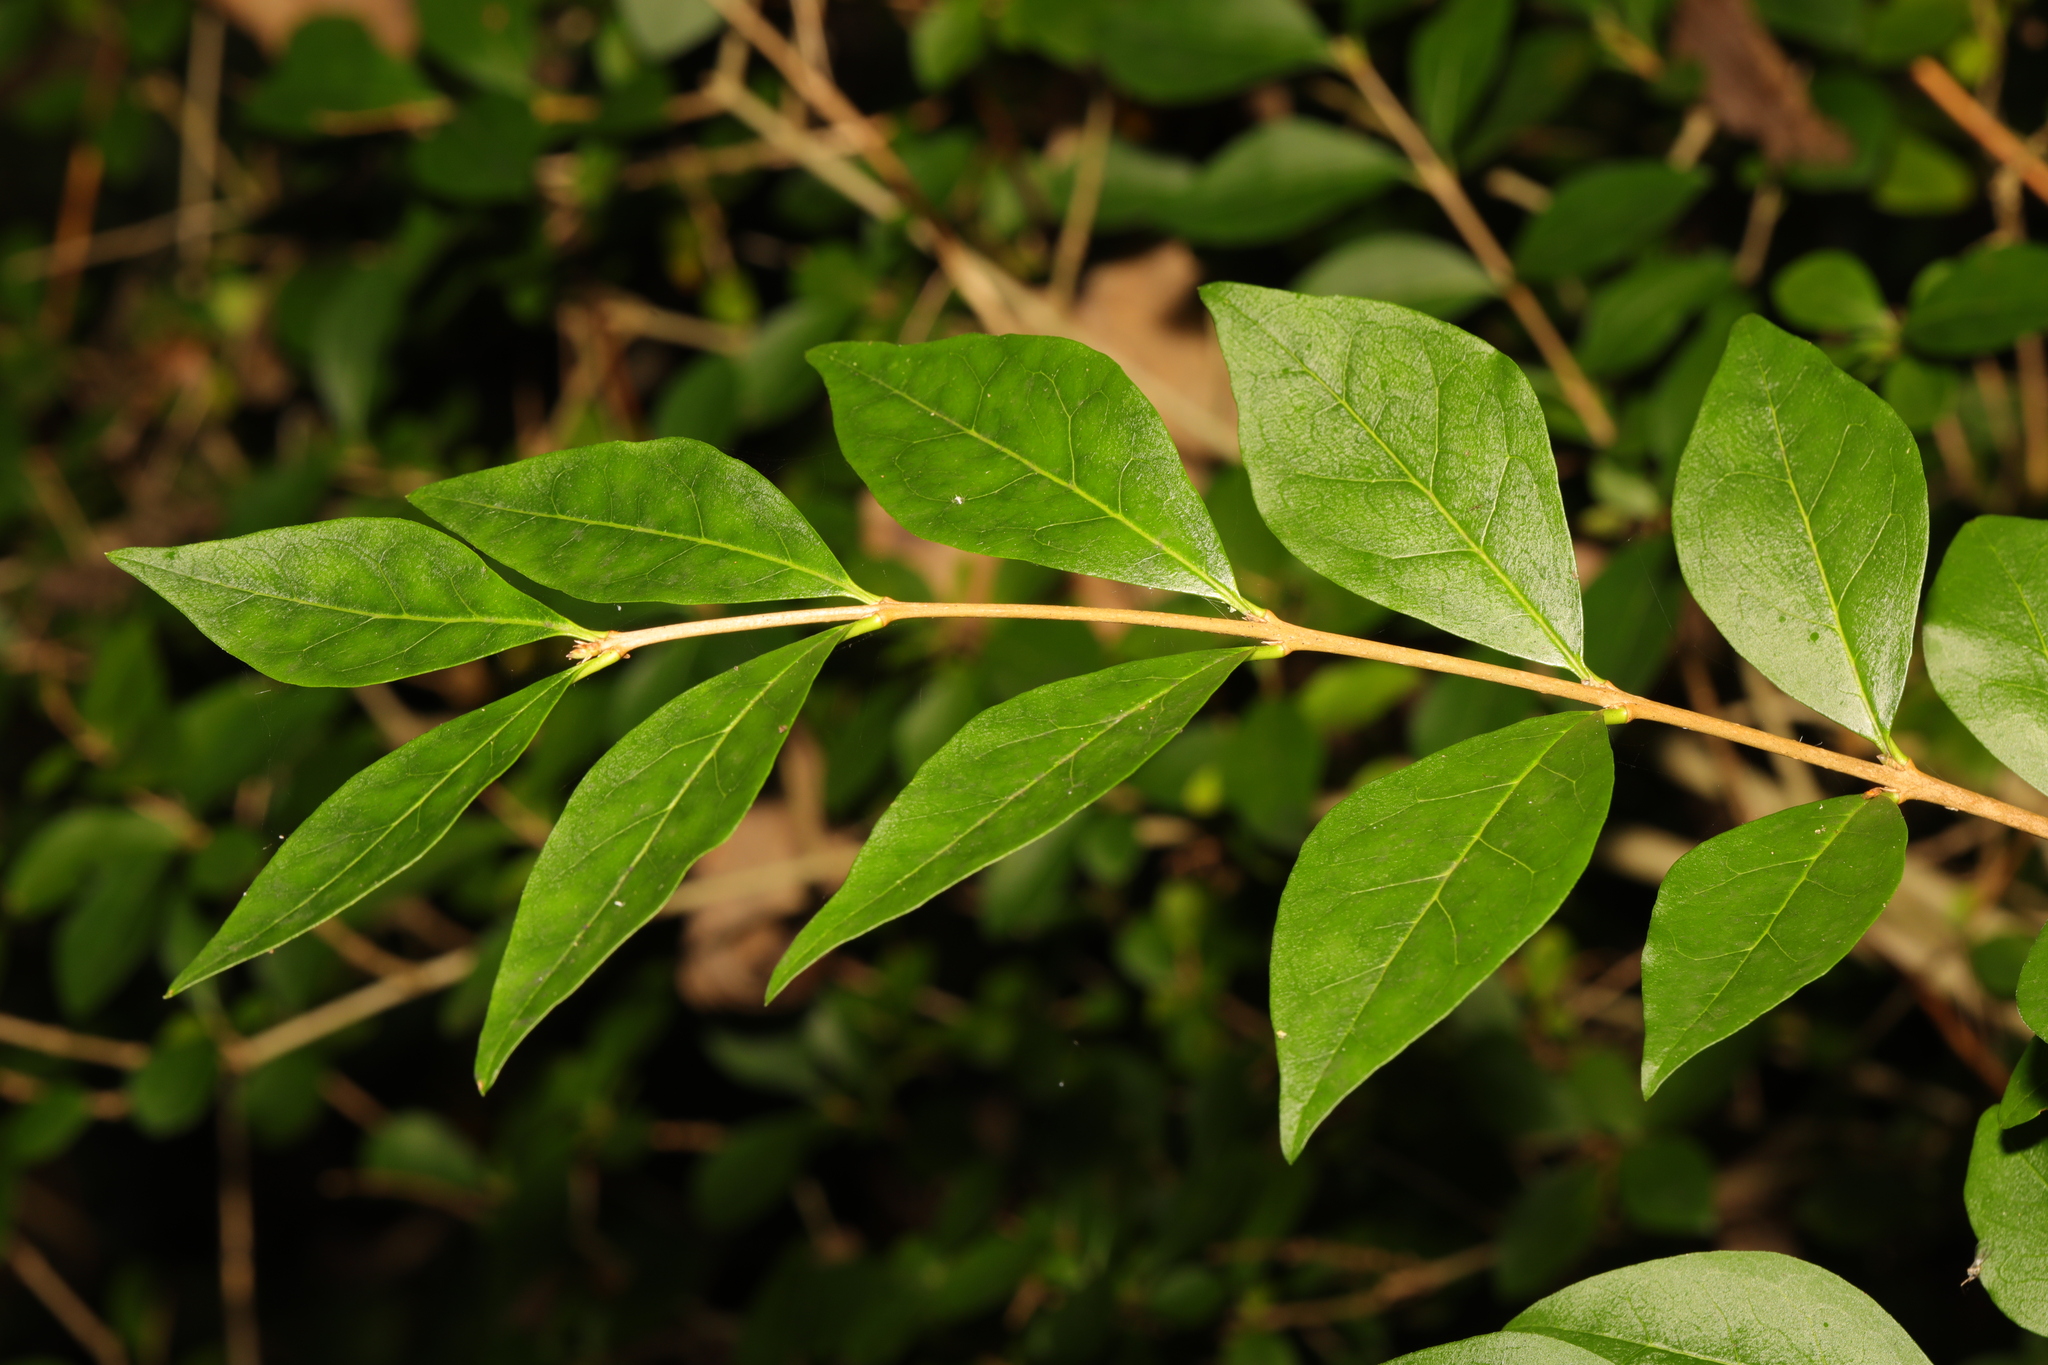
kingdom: Plantae
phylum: Tracheophyta
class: Magnoliopsida
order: Lamiales
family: Oleaceae
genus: Ligustrum
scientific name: Ligustrum ovalifolium
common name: California privet
